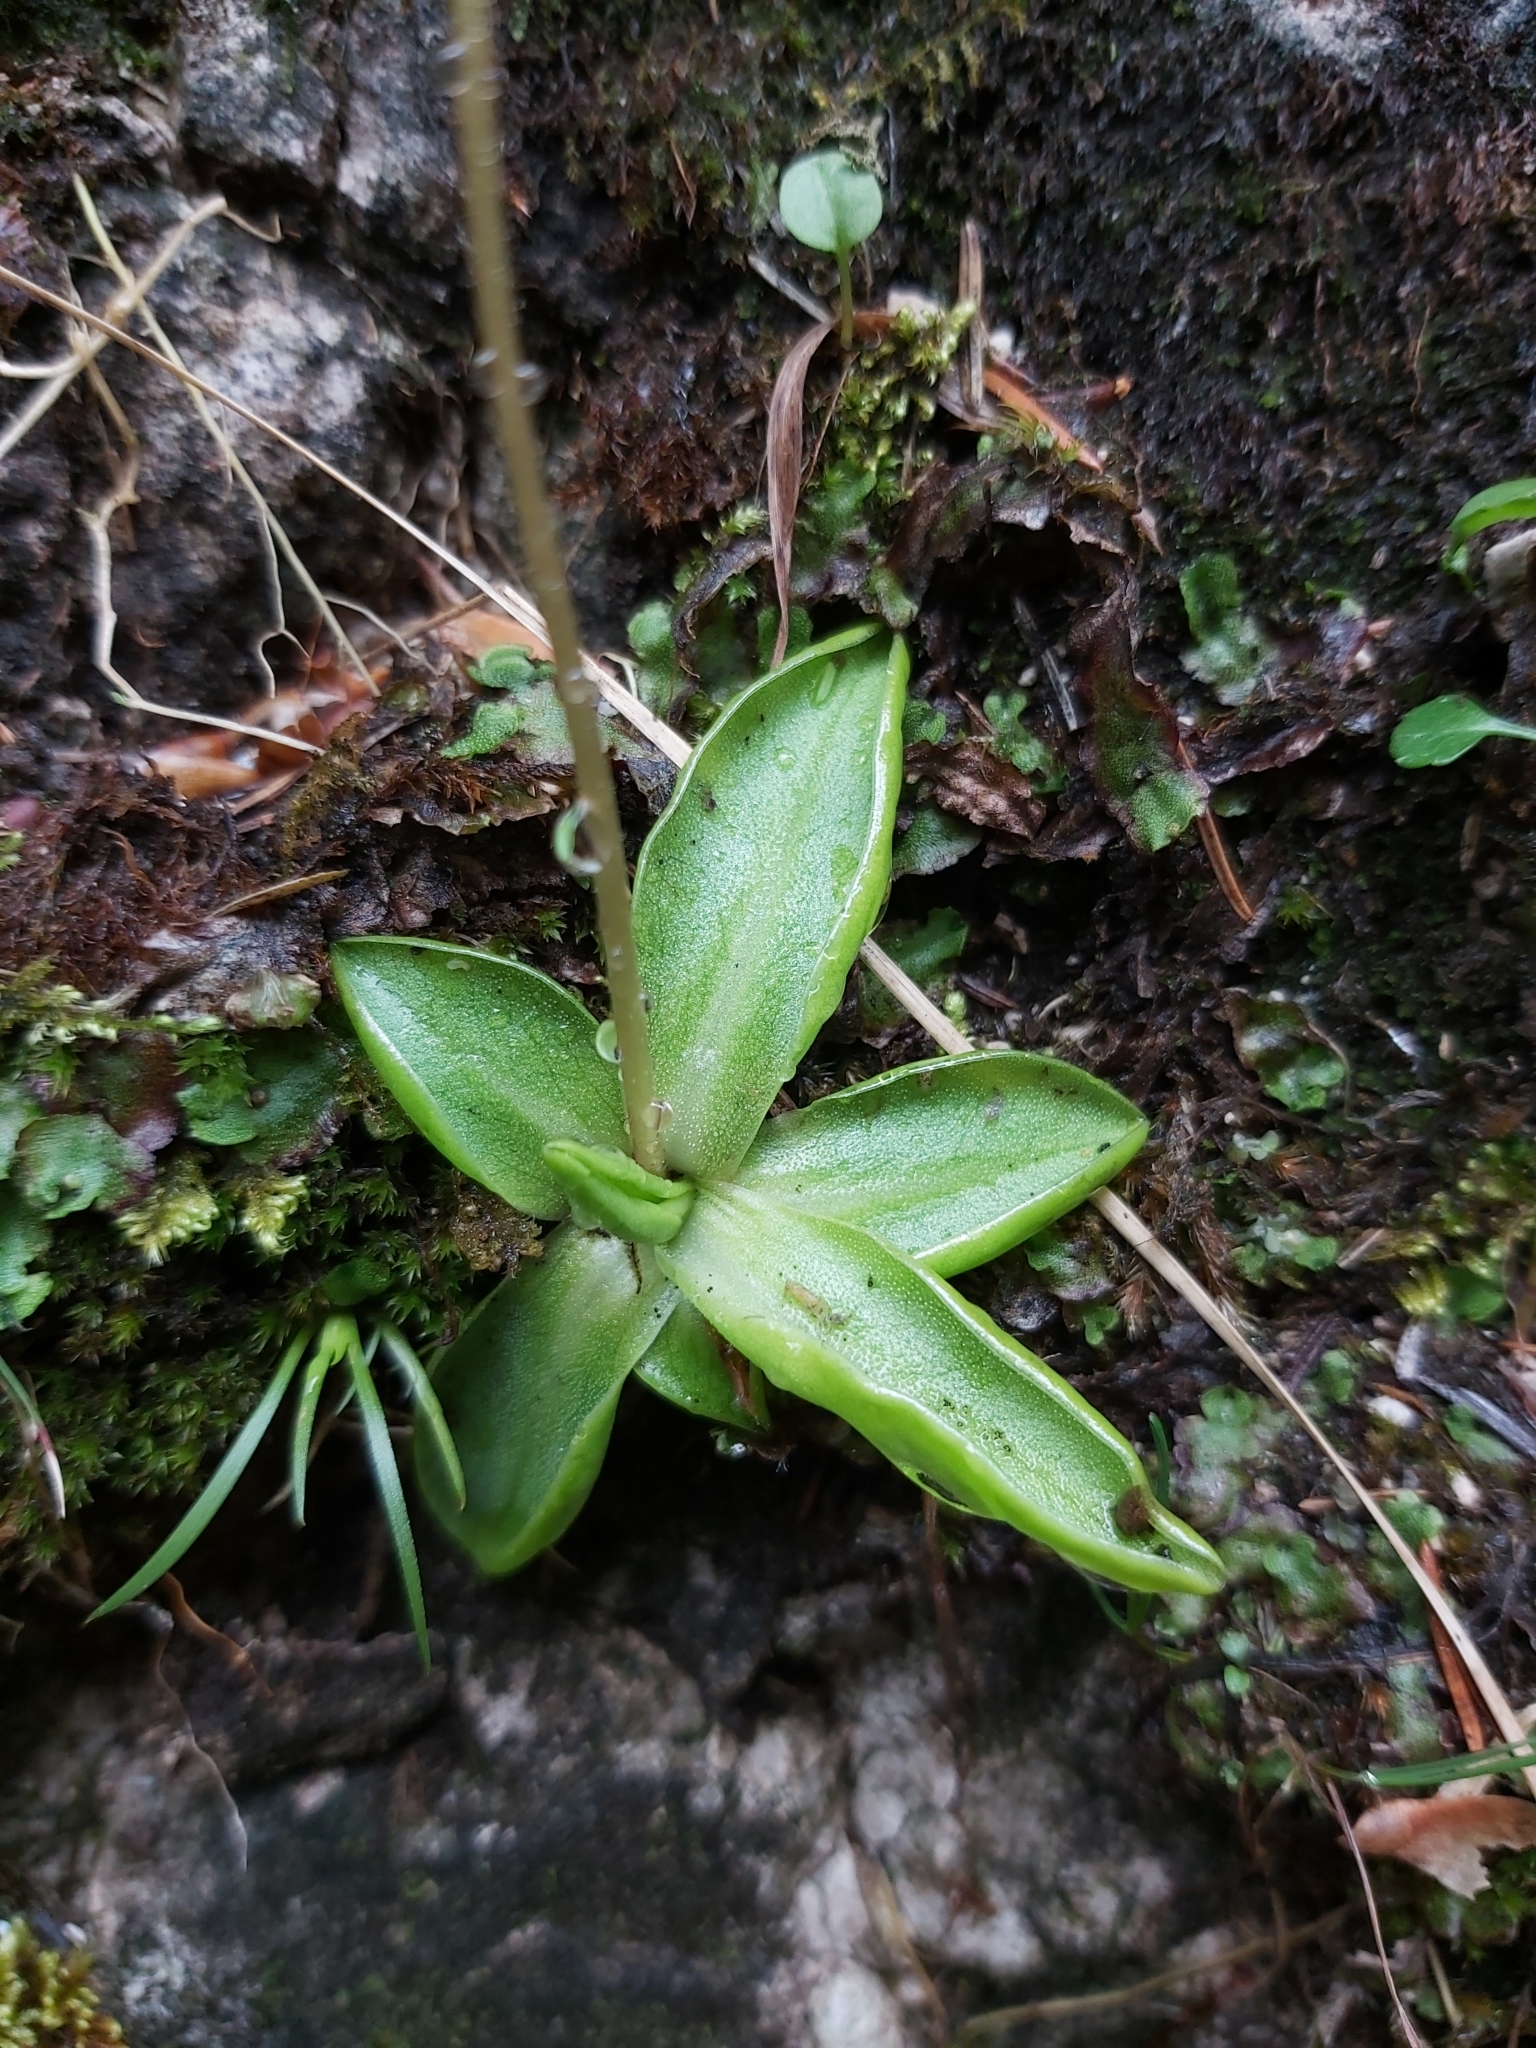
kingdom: Plantae
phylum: Tracheophyta
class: Magnoliopsida
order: Lamiales
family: Lentibulariaceae
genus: Pinguicula
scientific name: Pinguicula alpina
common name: Alpine butterwort
